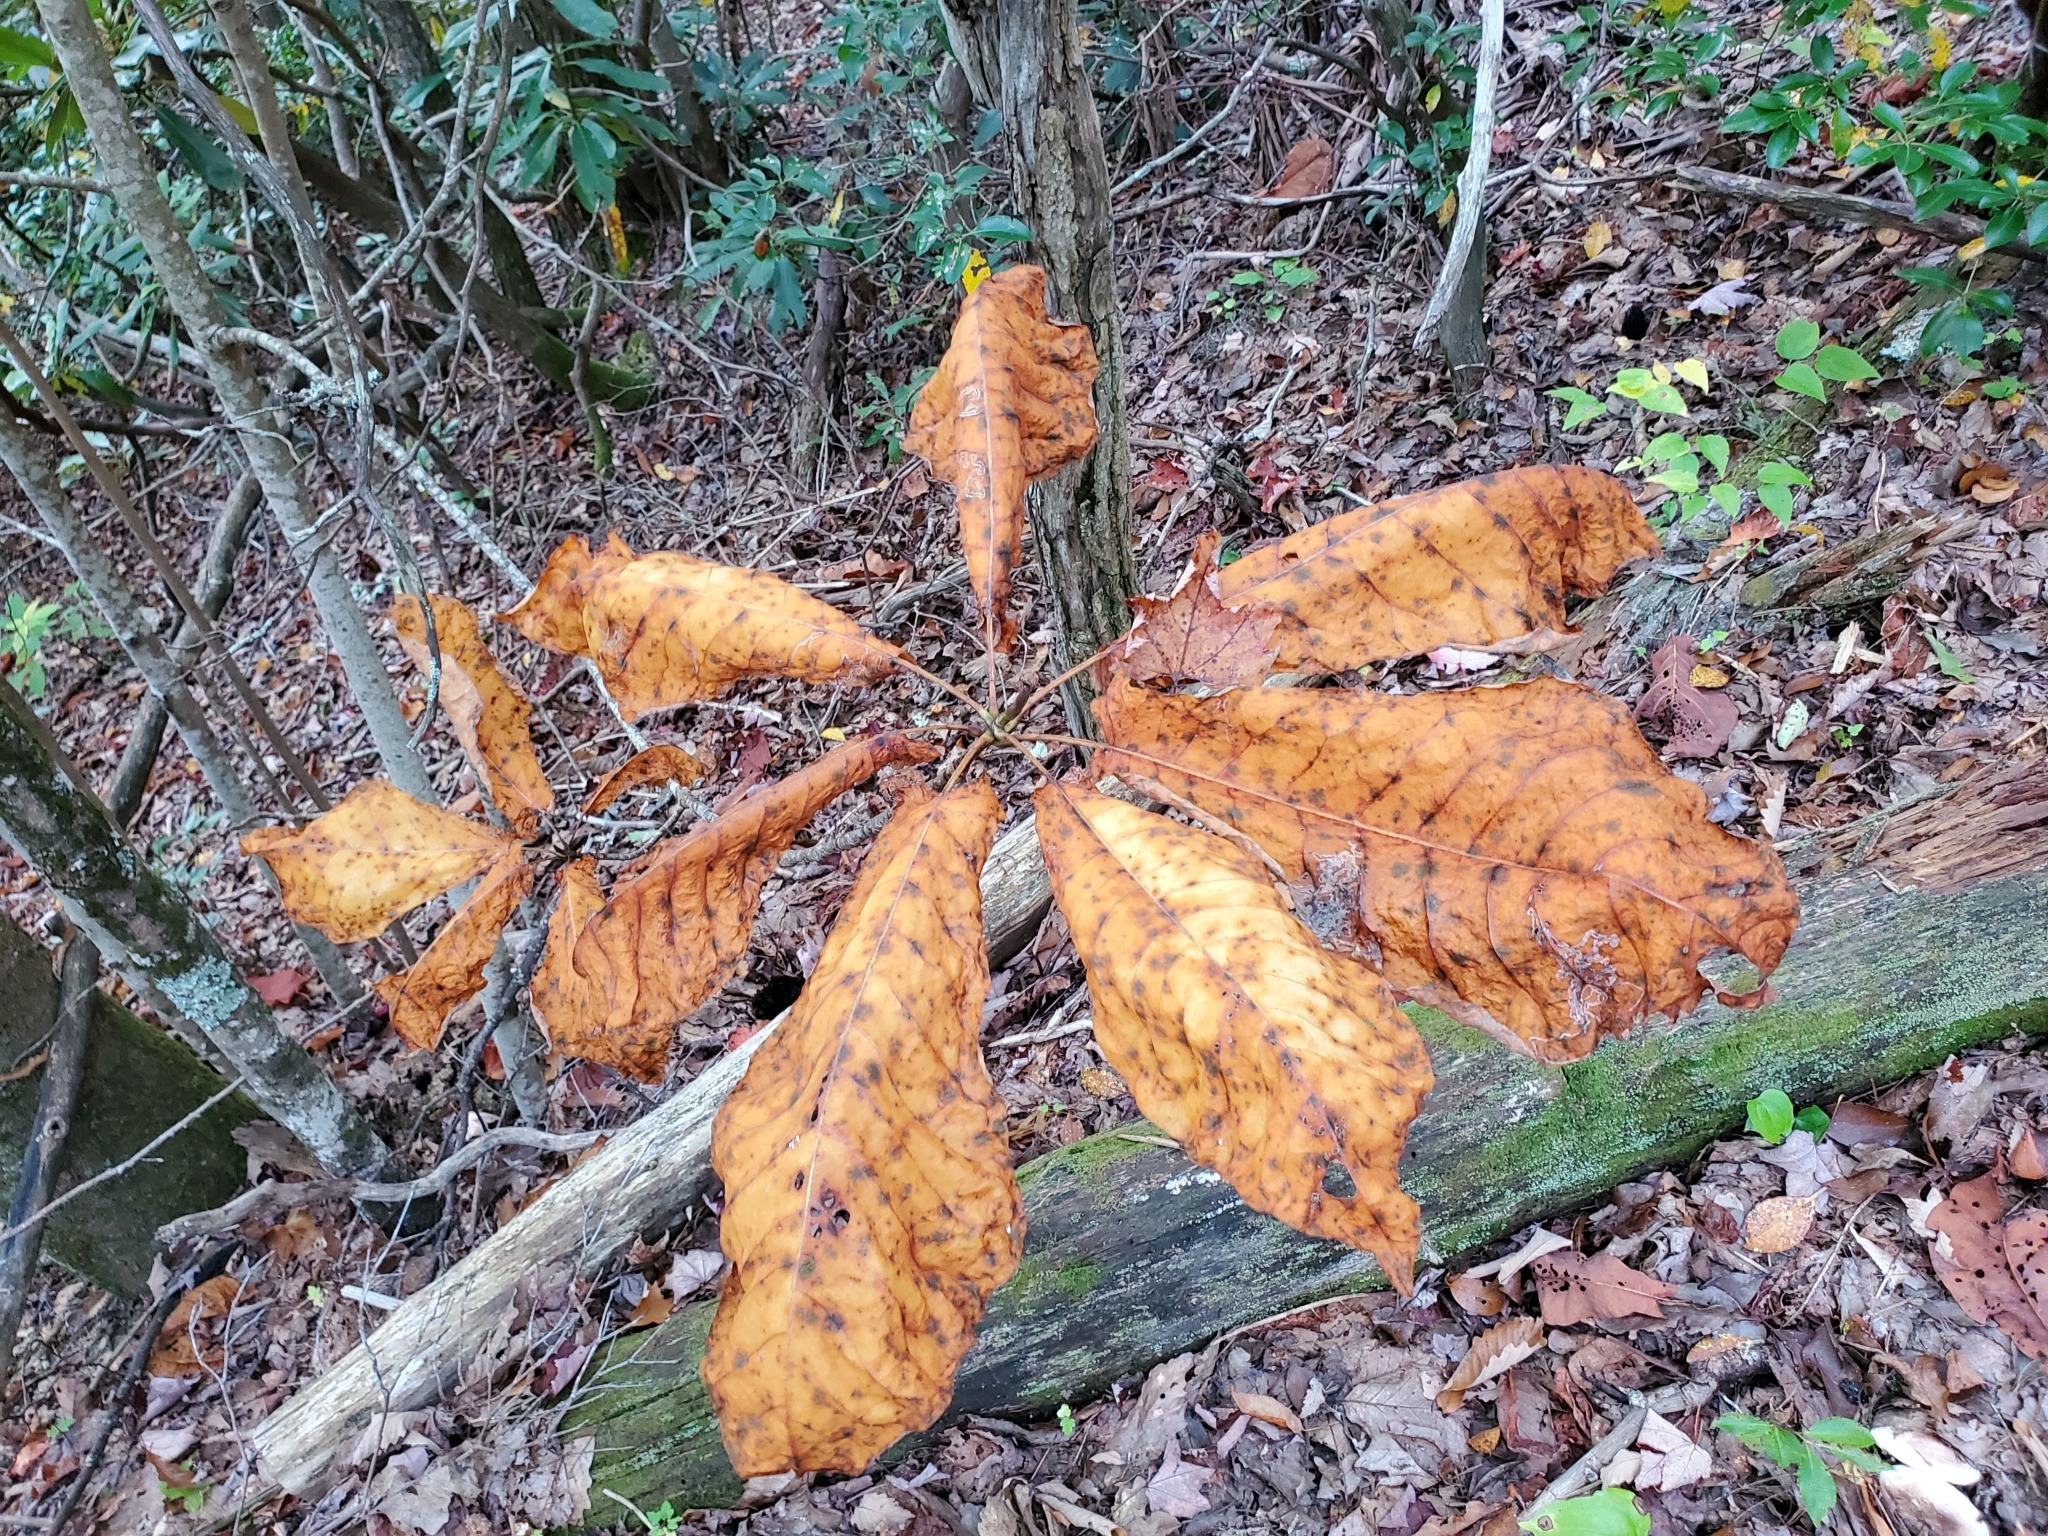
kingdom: Plantae
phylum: Tracheophyta
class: Magnoliopsida
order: Magnoliales
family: Magnoliaceae
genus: Magnolia
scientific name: Magnolia fraseri
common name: Fraser's magnolia
